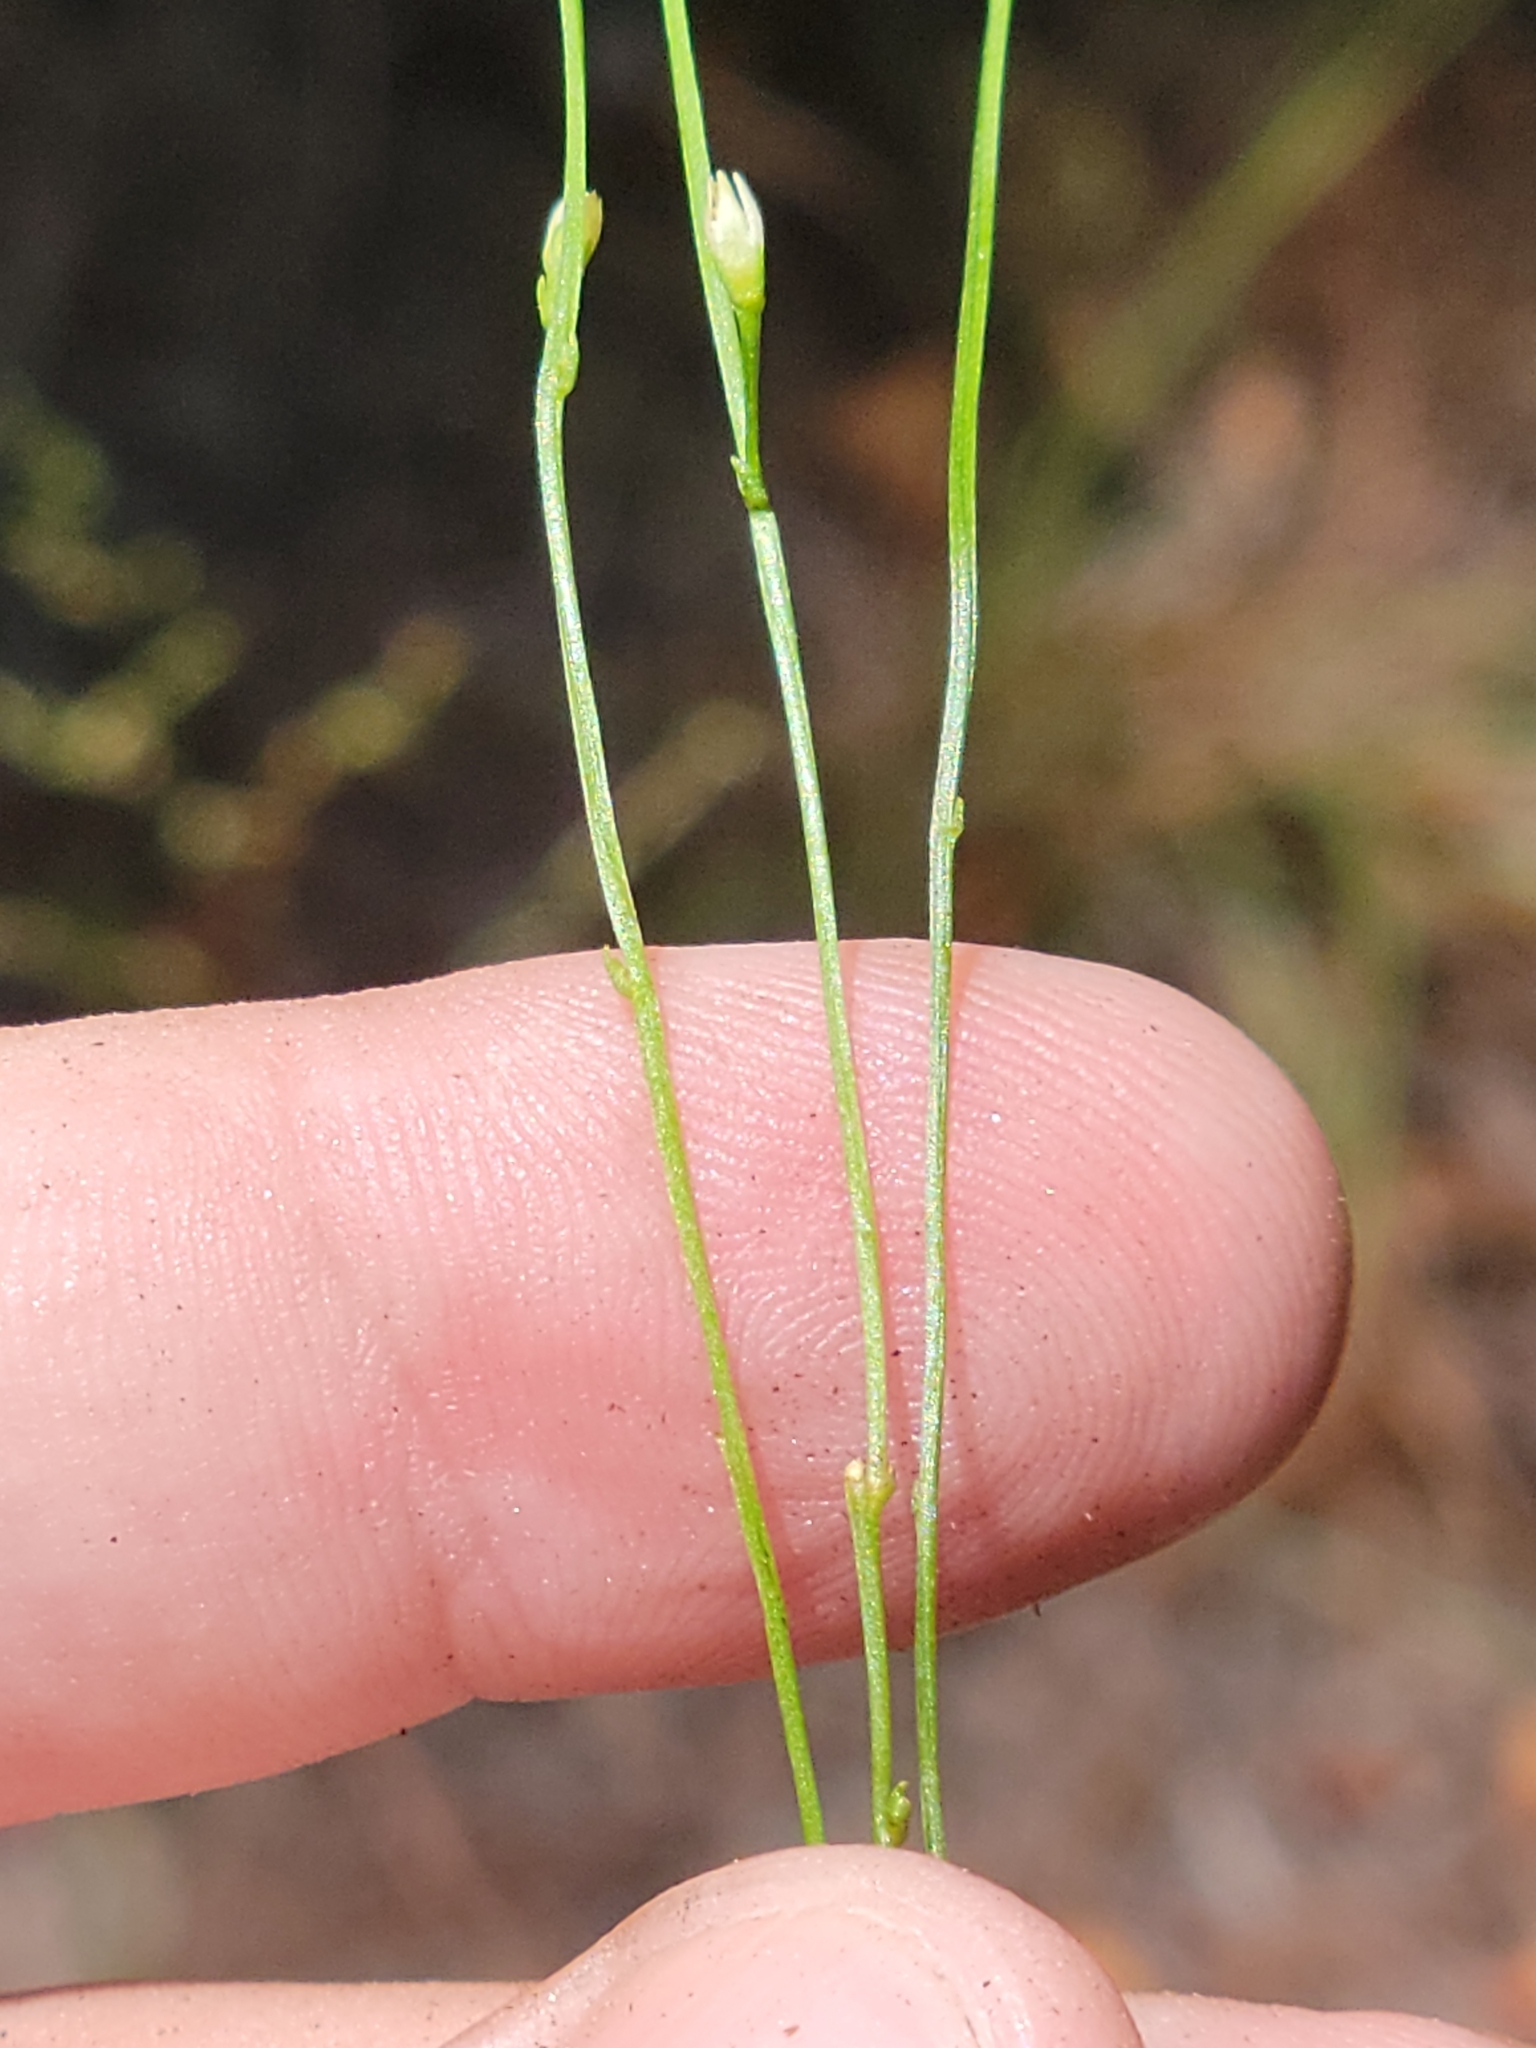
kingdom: Plantae
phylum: Tracheophyta
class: Magnoliopsida
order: Gentianales
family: Gentianaceae
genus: Bartonia
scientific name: Bartonia virginica
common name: Yellow bartonia
